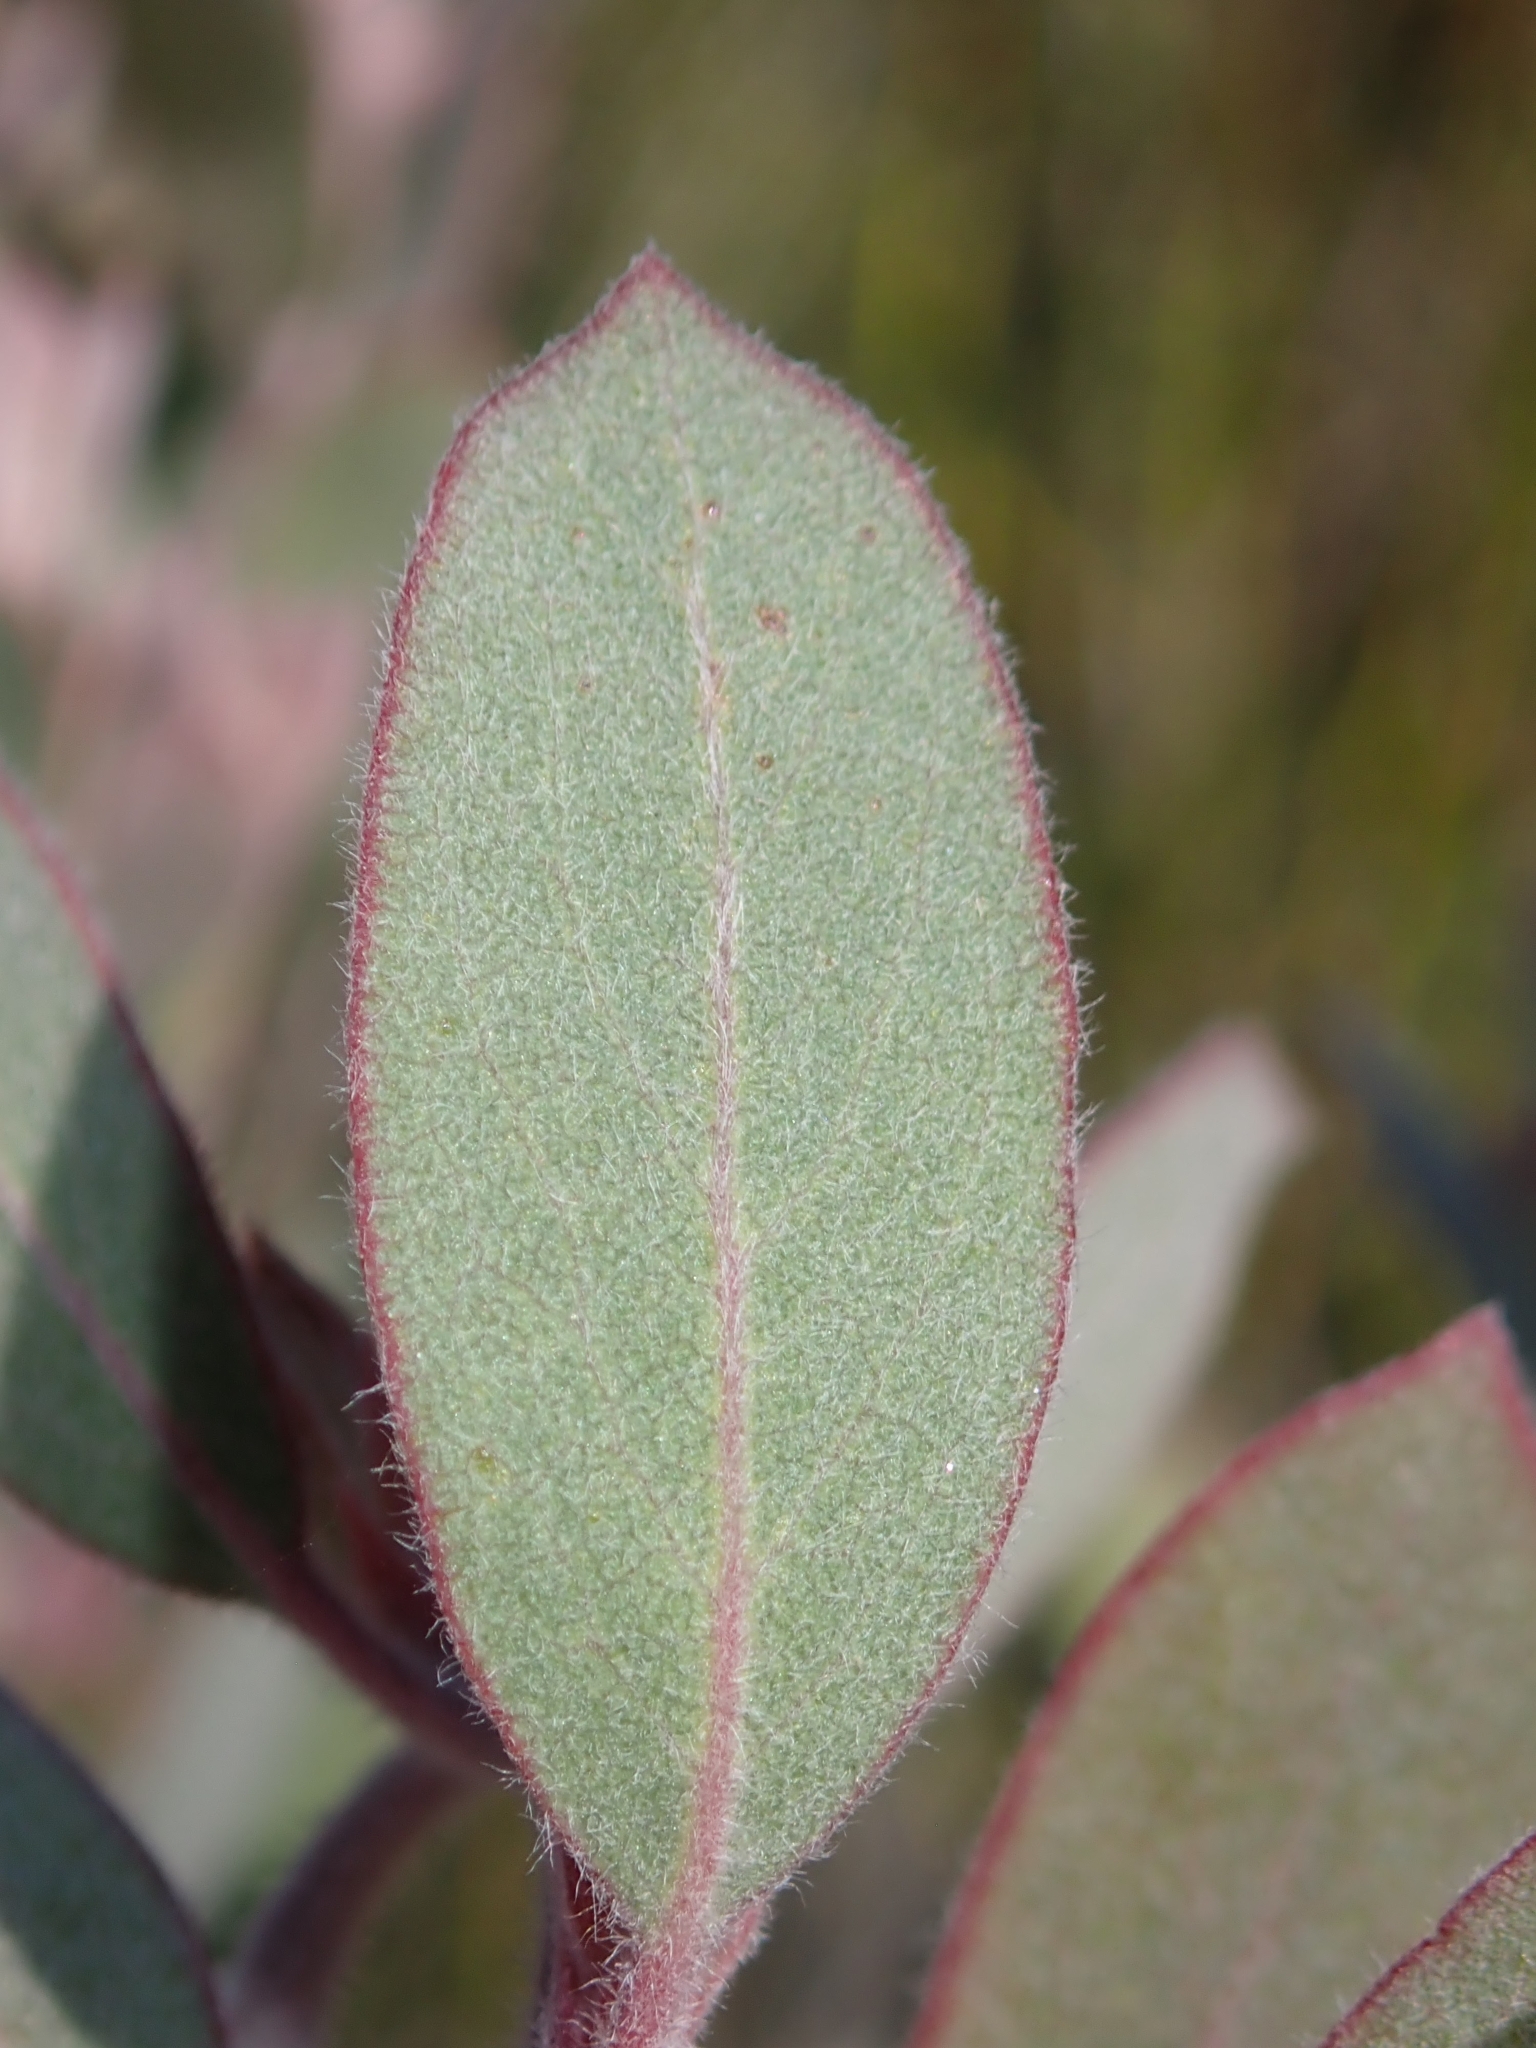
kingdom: Plantae
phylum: Tracheophyta
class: Magnoliopsida
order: Ericales
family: Ericaceae
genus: Arctostaphylos
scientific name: Arctostaphylos silvicola
